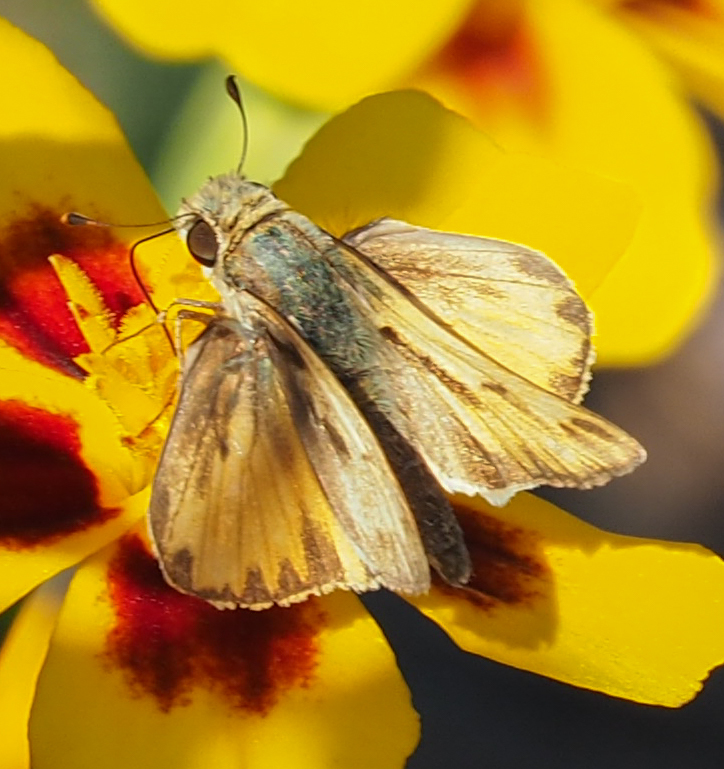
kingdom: Animalia
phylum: Arthropoda
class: Insecta
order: Lepidoptera
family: Hesperiidae
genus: Hylephila
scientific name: Hylephila phyleus
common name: Fiery skipper
